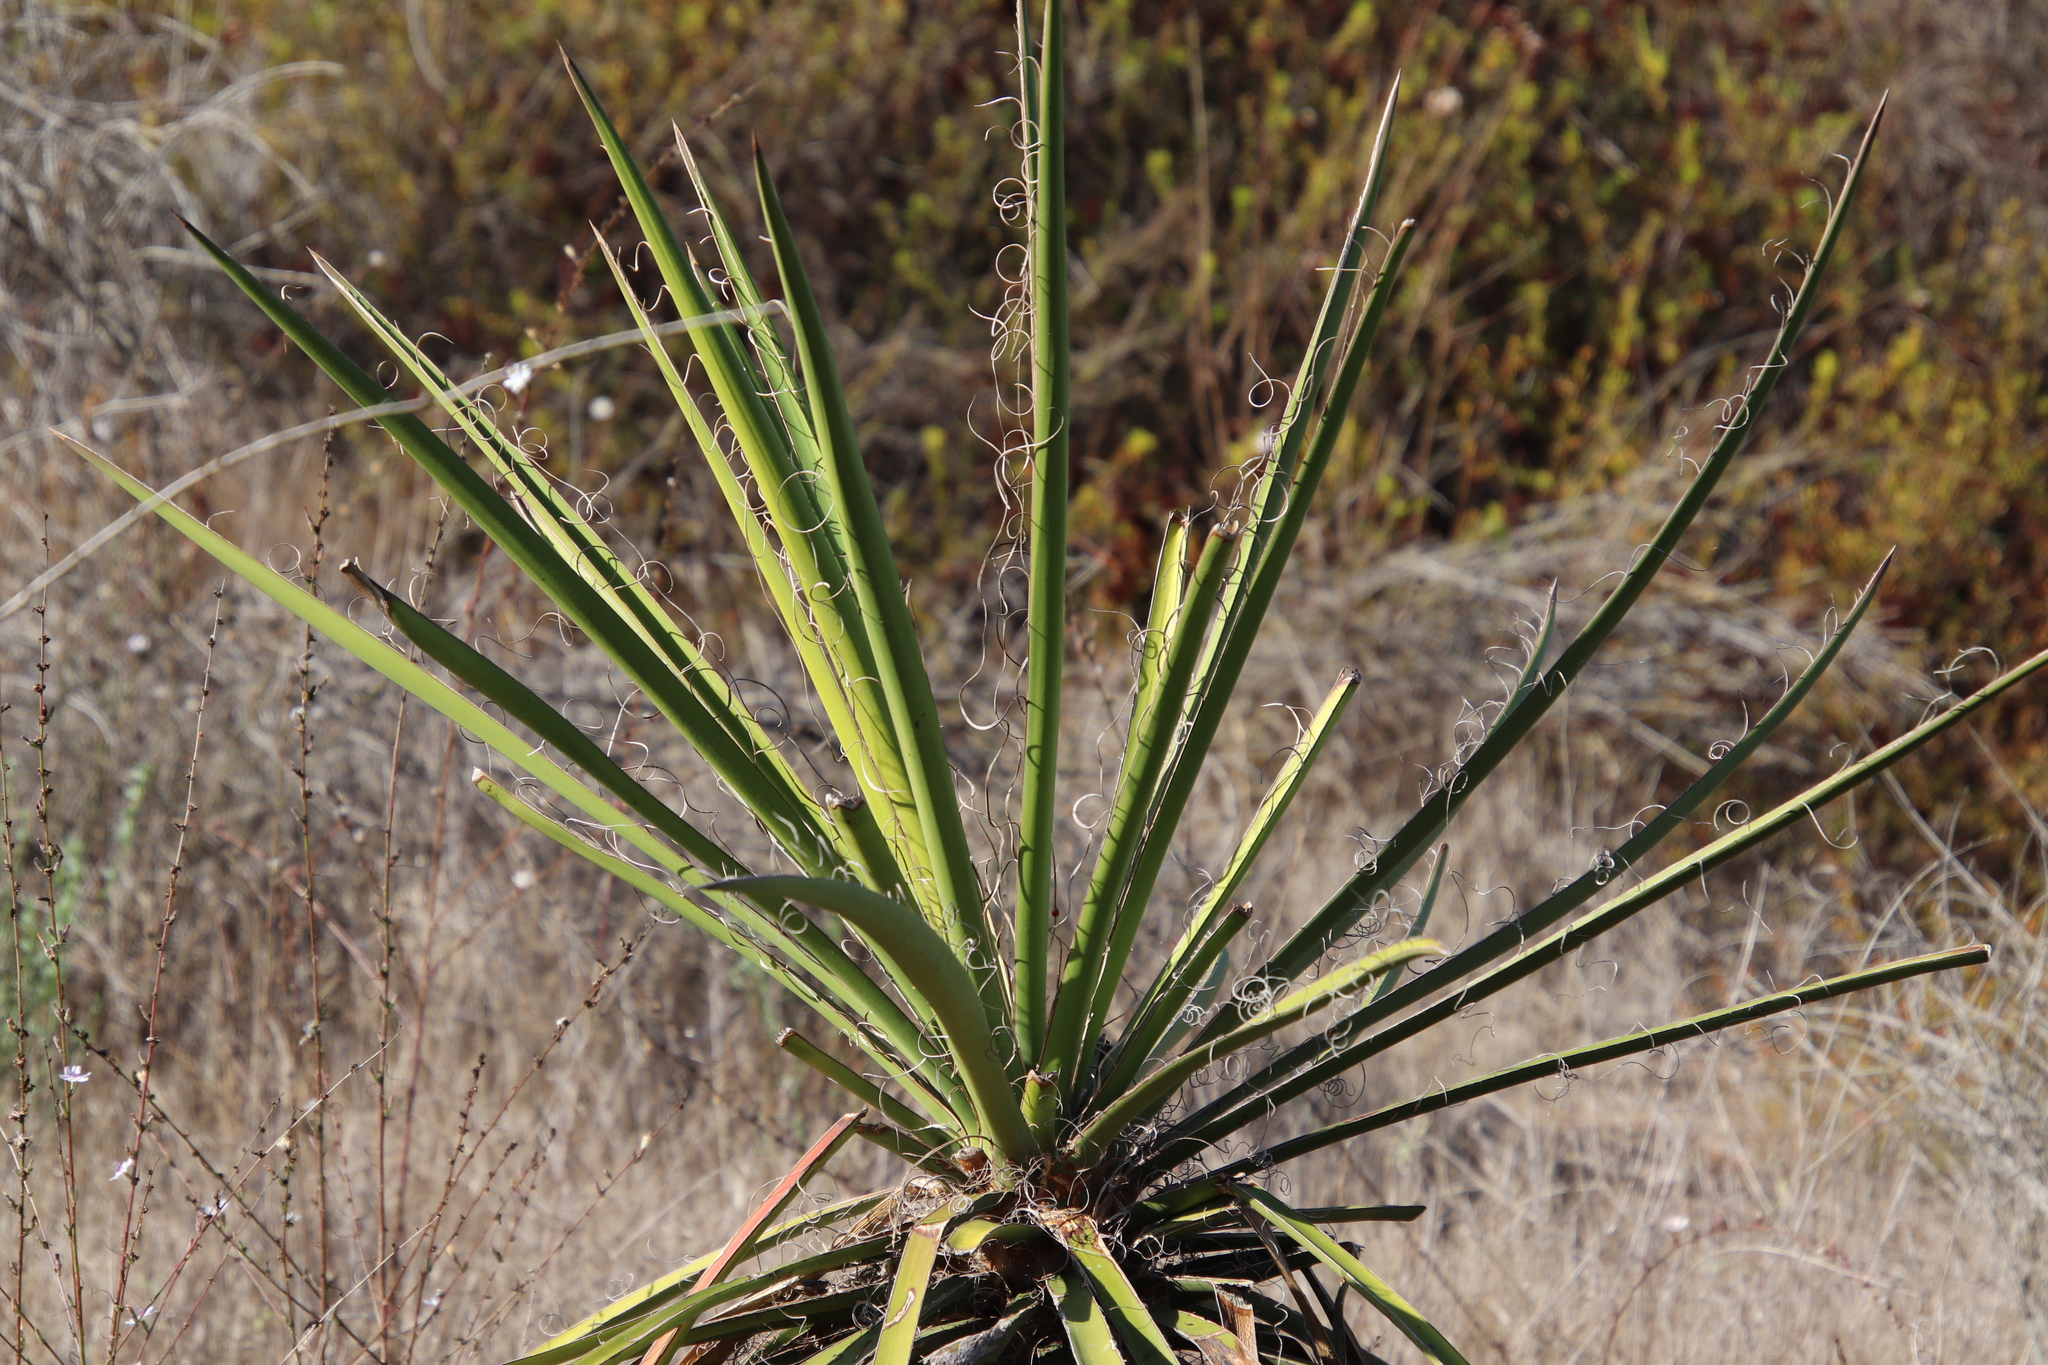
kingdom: Plantae
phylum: Tracheophyta
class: Liliopsida
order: Asparagales
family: Asparagaceae
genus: Yucca
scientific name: Yucca schidigera
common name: Mojave yucca
